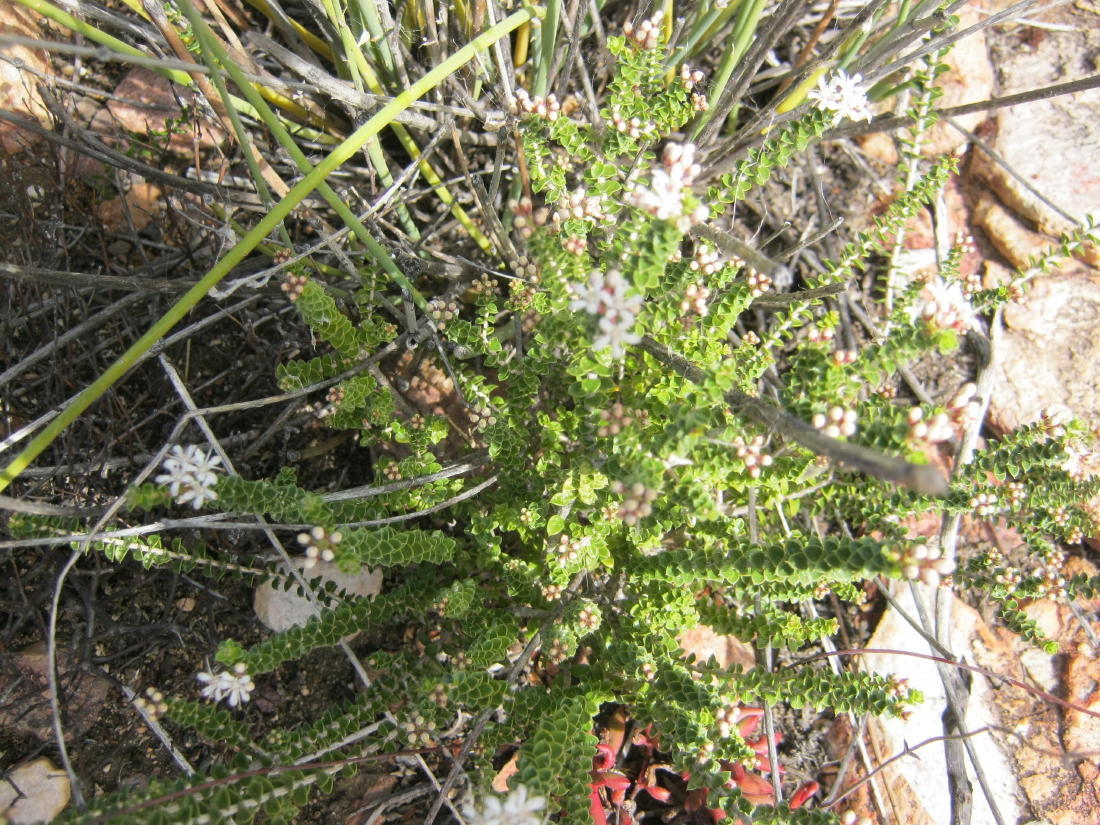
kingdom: Plantae
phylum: Tracheophyta
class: Magnoliopsida
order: Sapindales
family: Rutaceae
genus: Agathosma
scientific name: Agathosma recurvifolia
